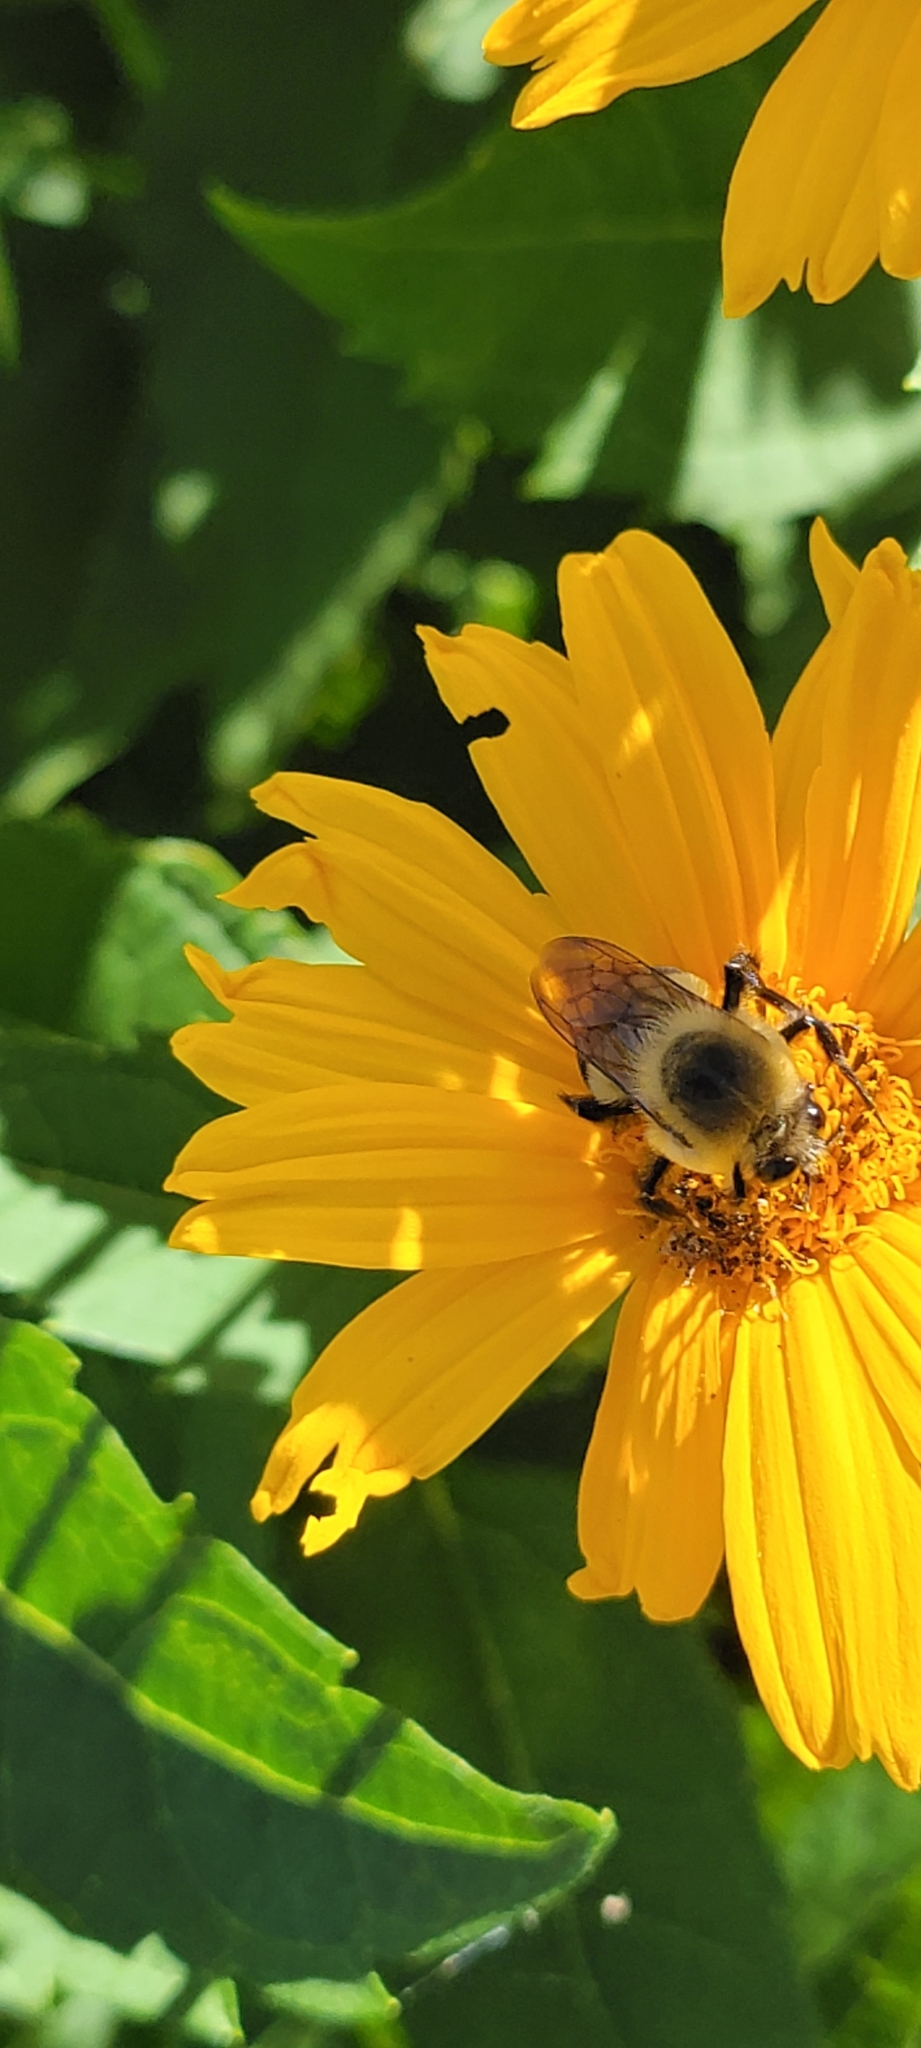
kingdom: Animalia
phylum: Arthropoda
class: Insecta
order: Hymenoptera
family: Apidae
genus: Bombus
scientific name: Bombus griseocollis
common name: Brown-belted bumble bee
